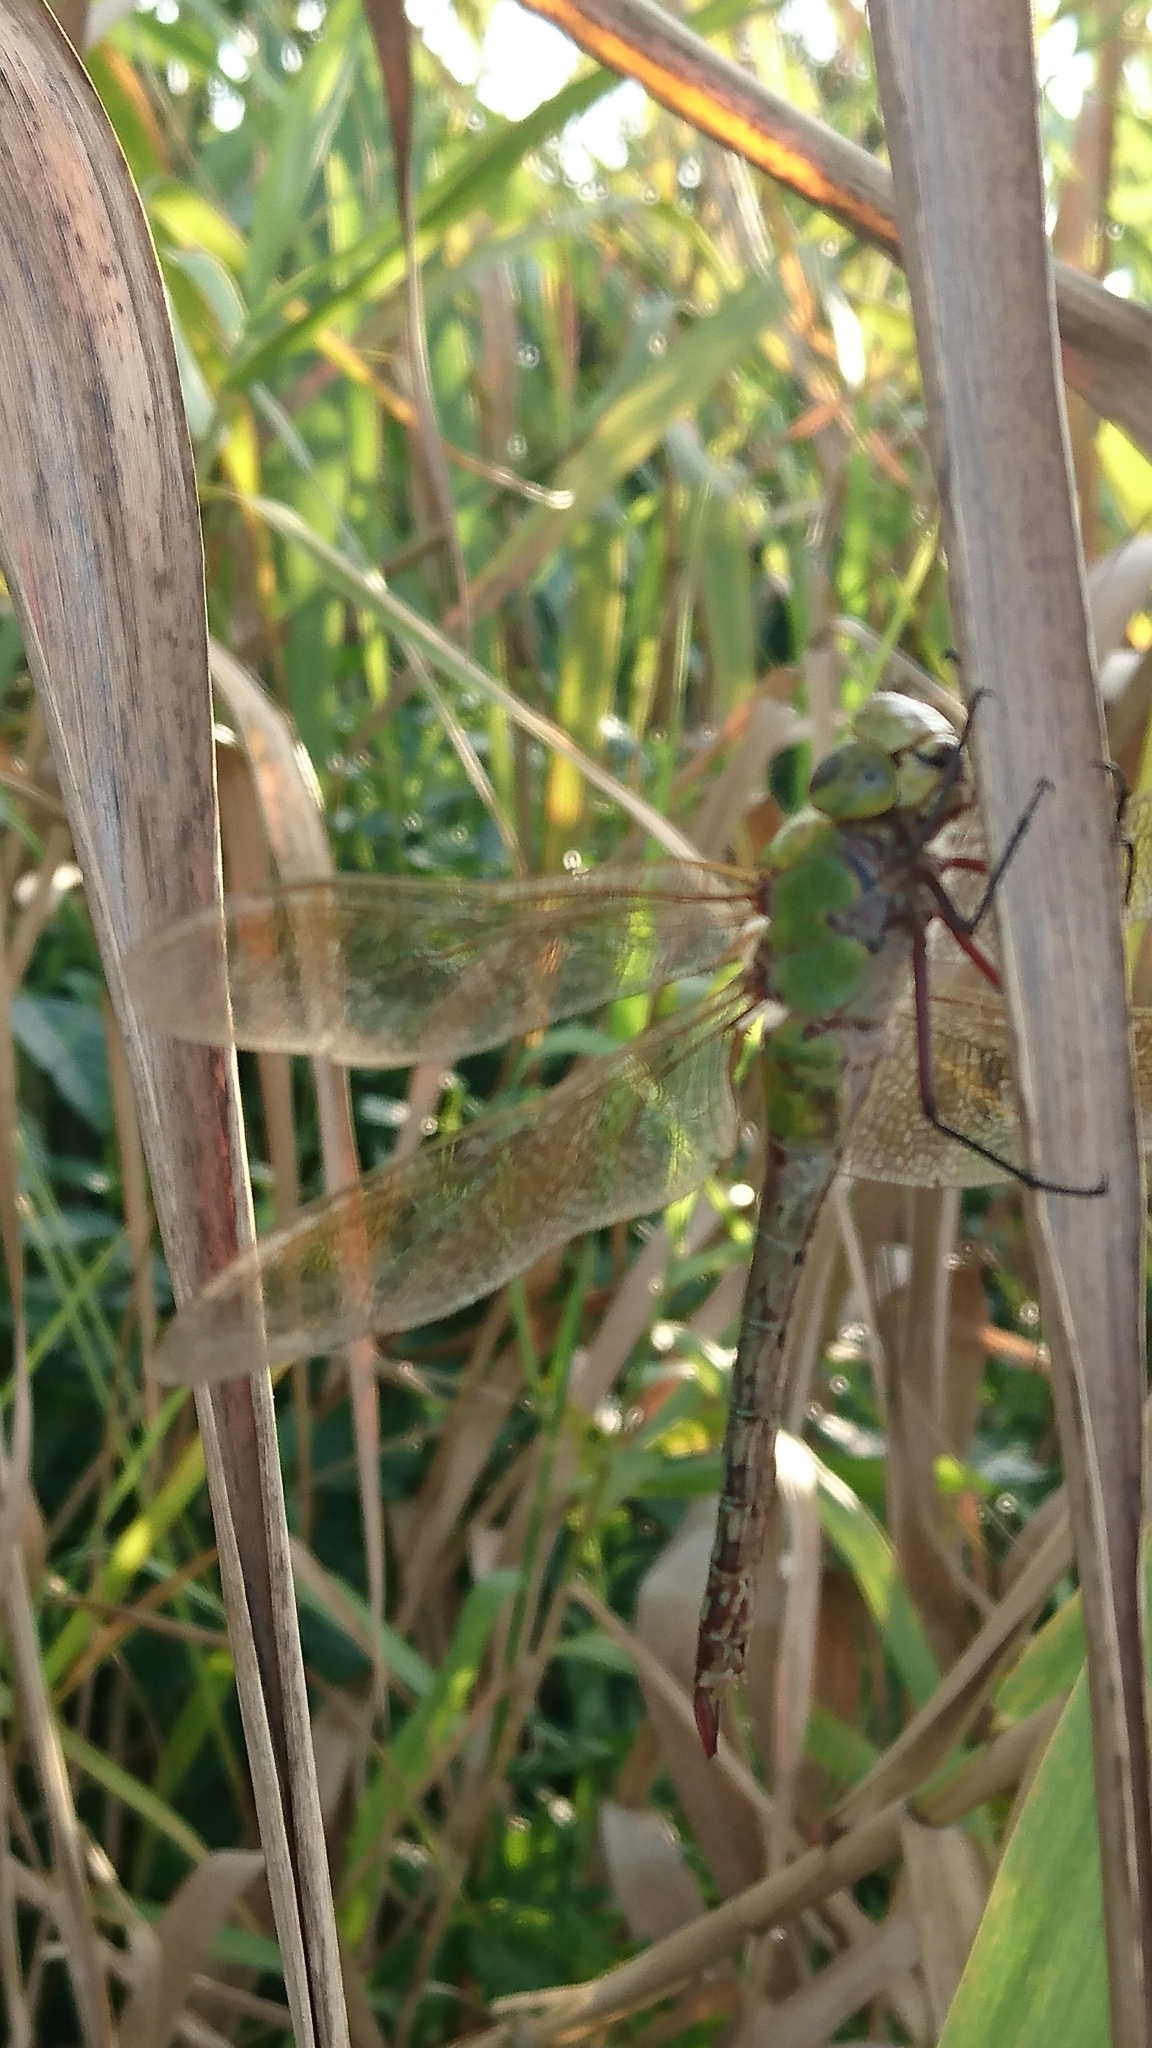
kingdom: Animalia
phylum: Arthropoda
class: Insecta
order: Odonata
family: Aeshnidae
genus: Anax
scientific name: Anax junius
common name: Common green darner
